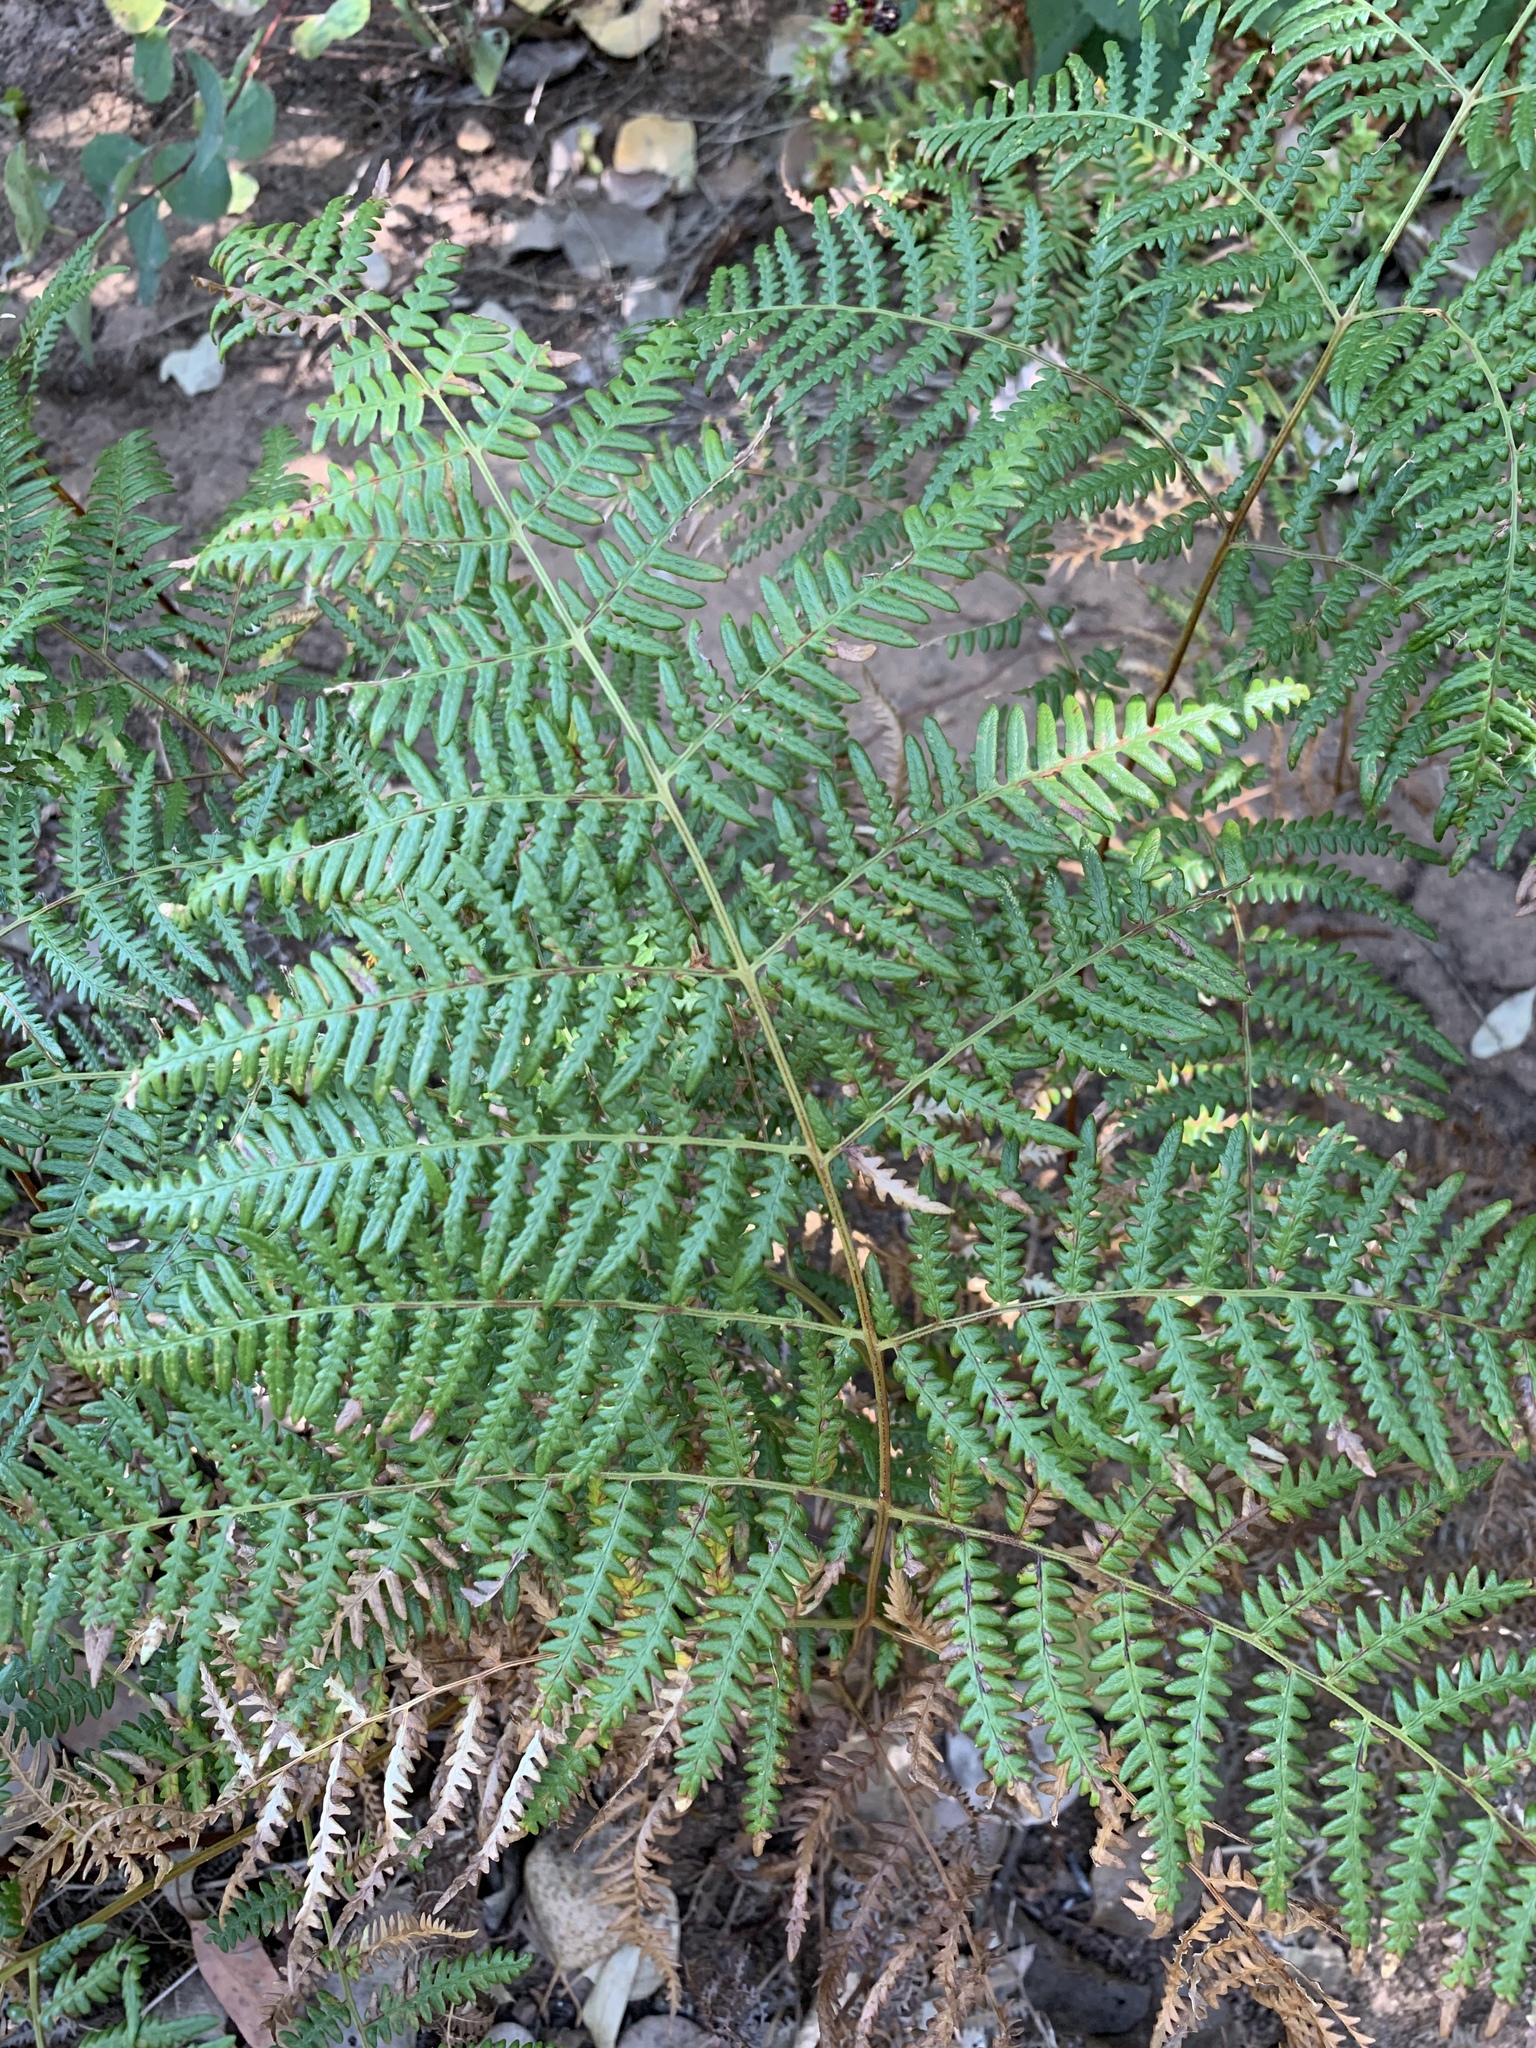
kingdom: Plantae
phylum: Tracheophyta
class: Polypodiopsida
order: Polypodiales
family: Dennstaedtiaceae
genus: Pteridium
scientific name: Pteridium aquilinum
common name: Bracken
